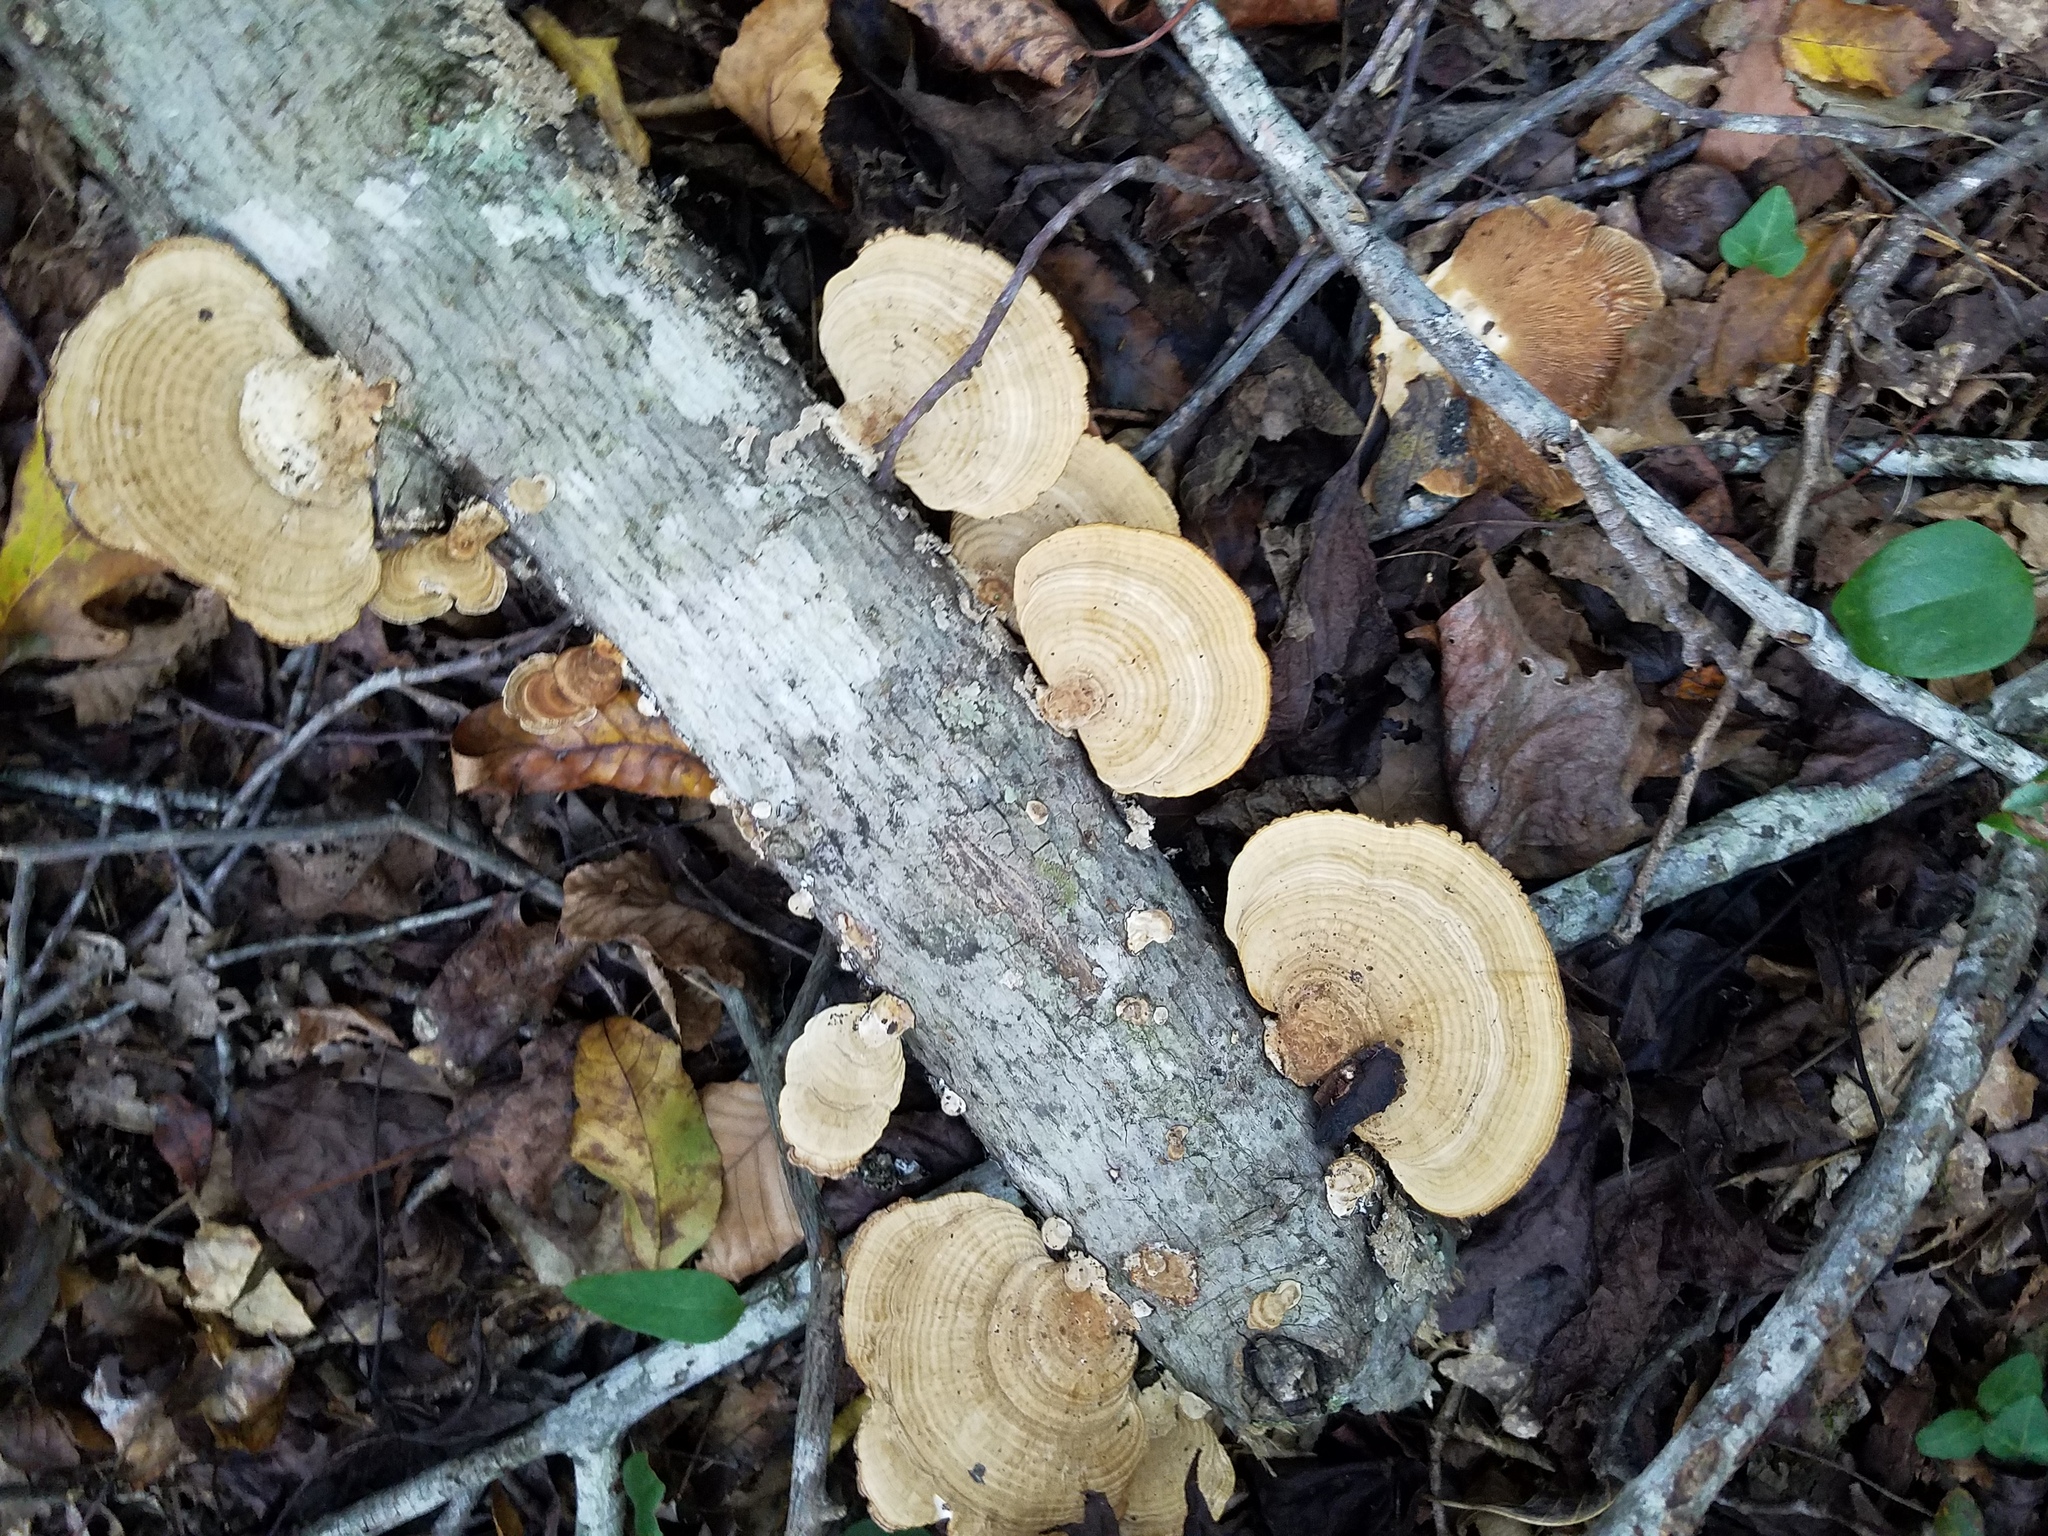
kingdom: Fungi
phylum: Basidiomycota
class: Agaricomycetes
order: Polyporales
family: Polyporaceae
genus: Daedaleopsis
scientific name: Daedaleopsis confragosa
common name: Blushing bracket
